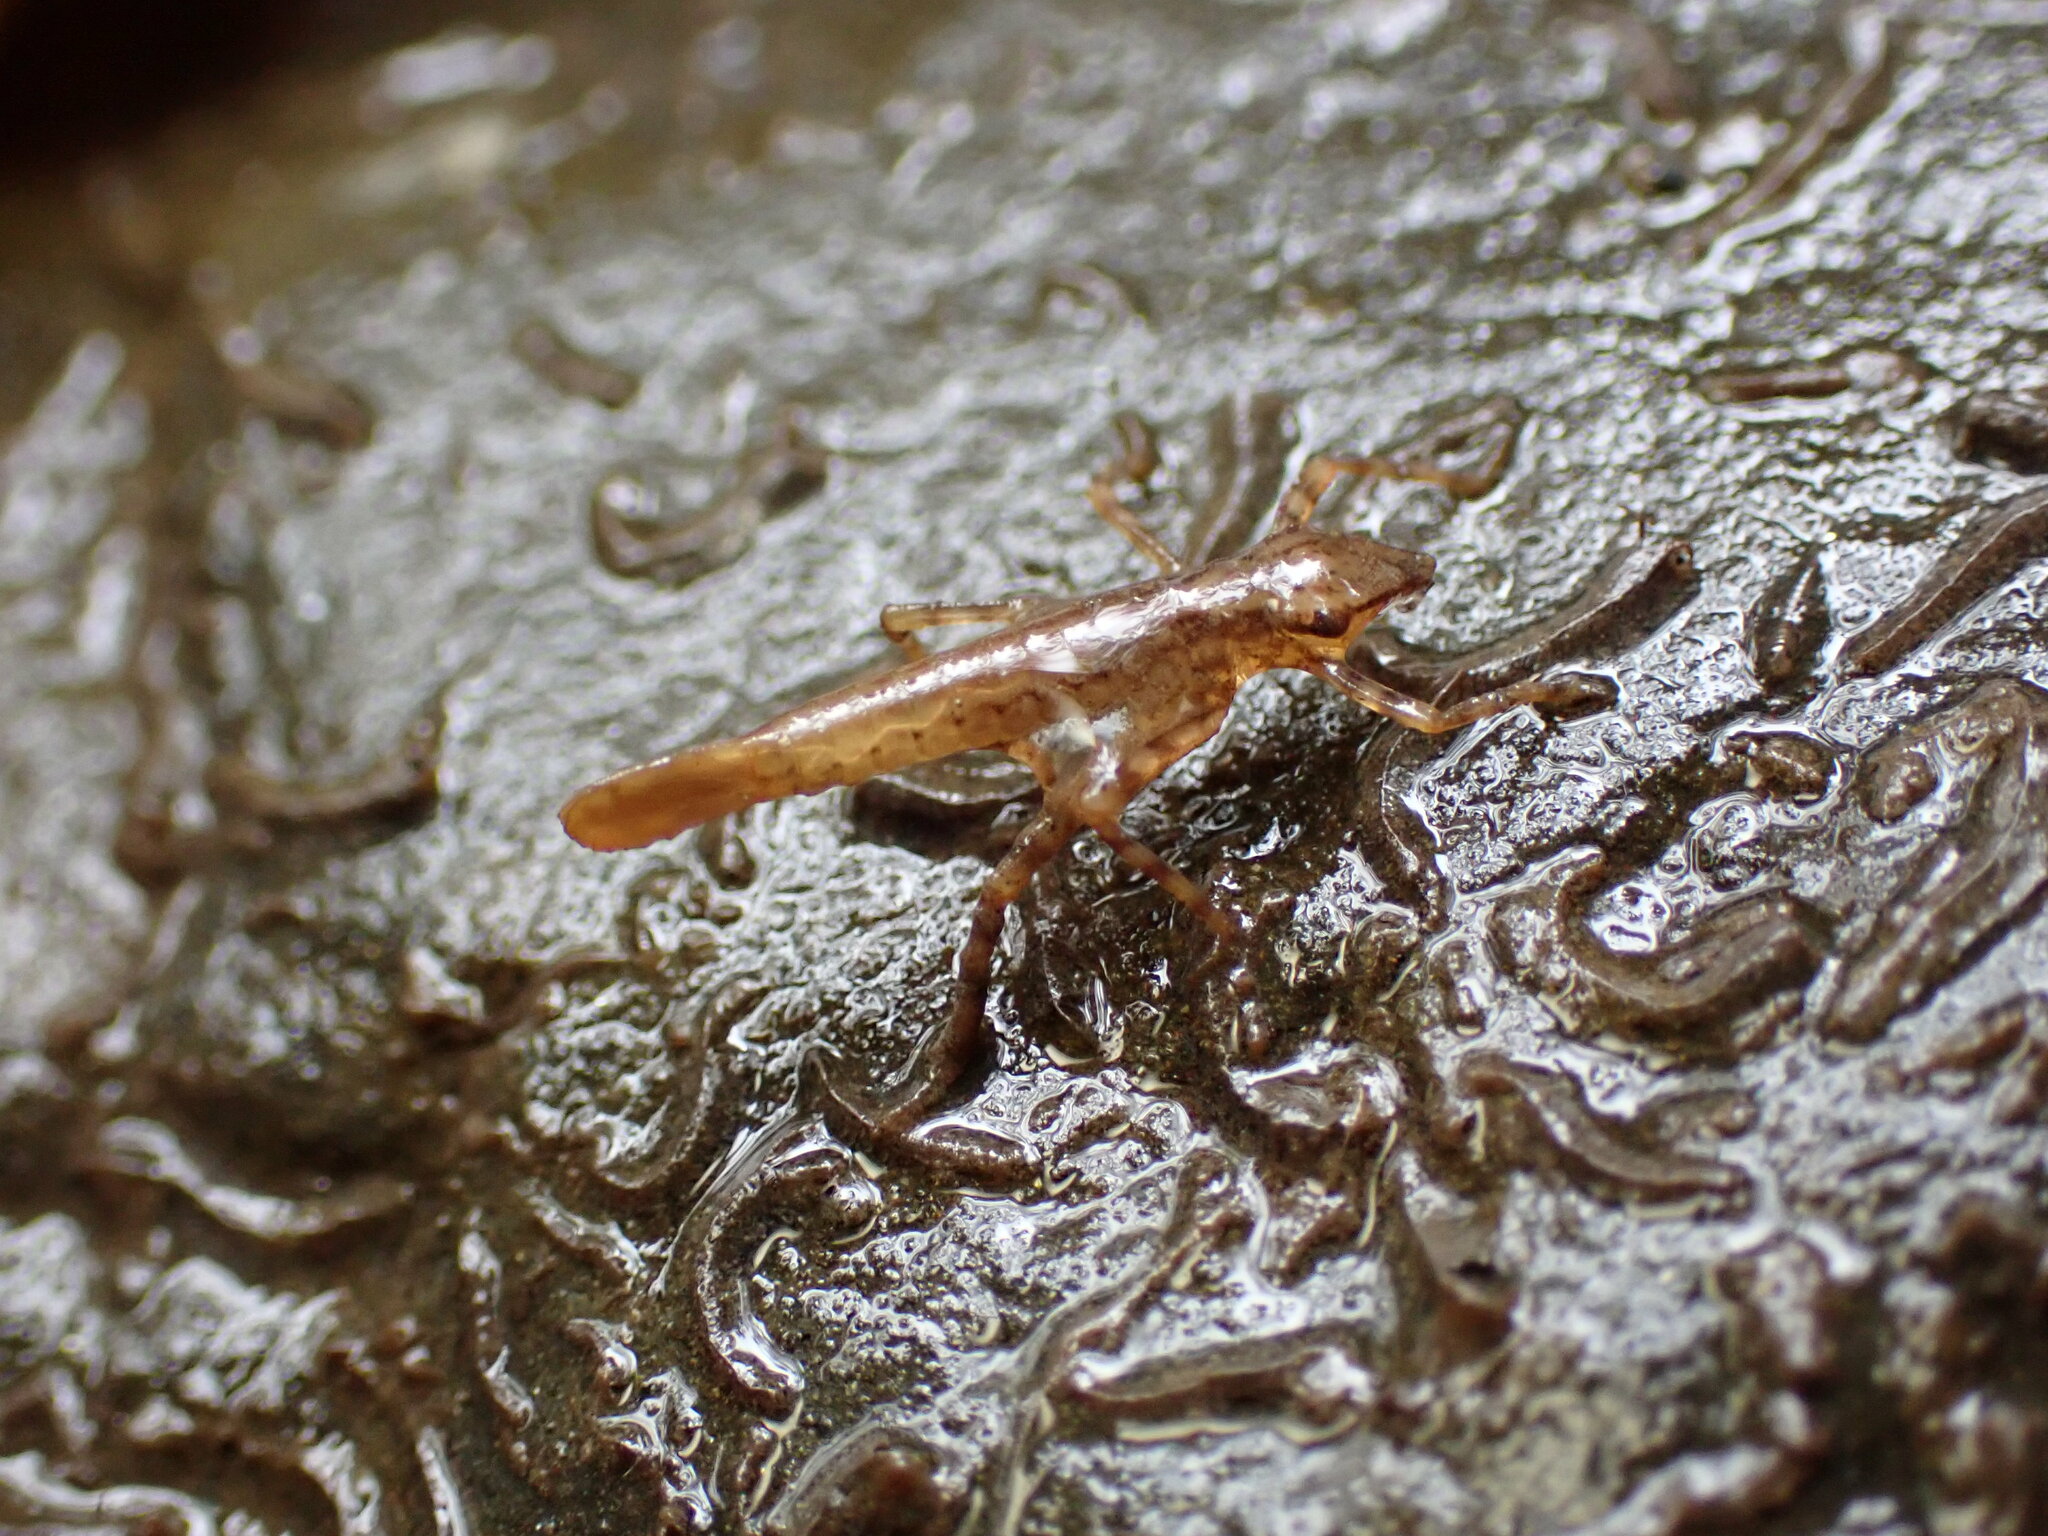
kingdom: Animalia
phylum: Arthropoda
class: Insecta
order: Odonata
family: Calopterygidae
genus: Psolodesmus
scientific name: Psolodesmus mandarinus
